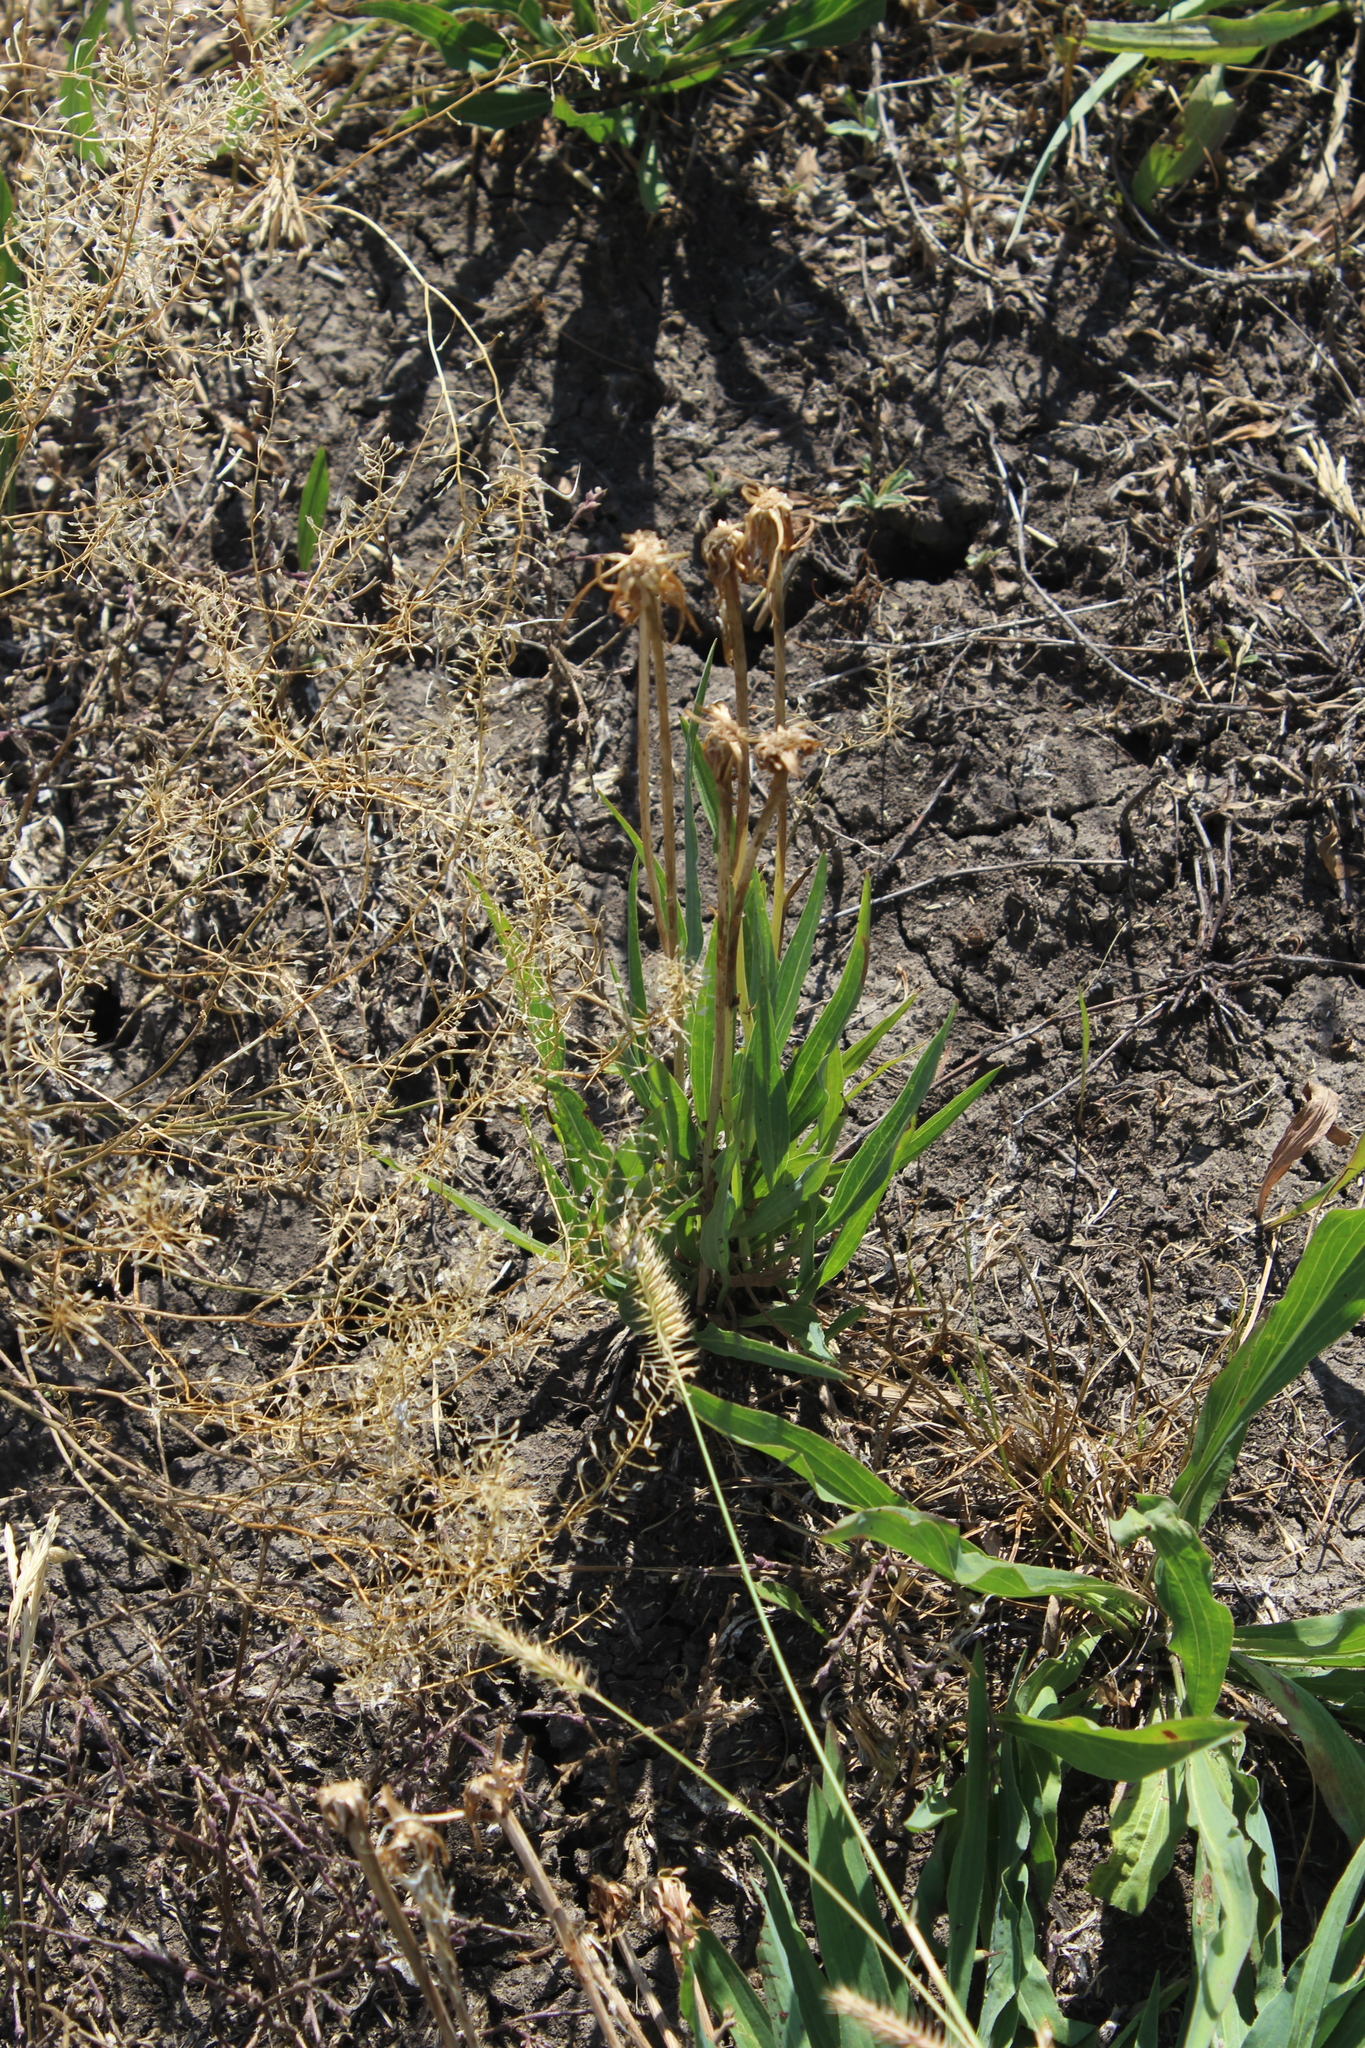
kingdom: Plantae
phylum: Tracheophyta
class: Magnoliopsida
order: Asterales
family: Asteraceae
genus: Scorzonera
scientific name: Scorzonera parviflora
